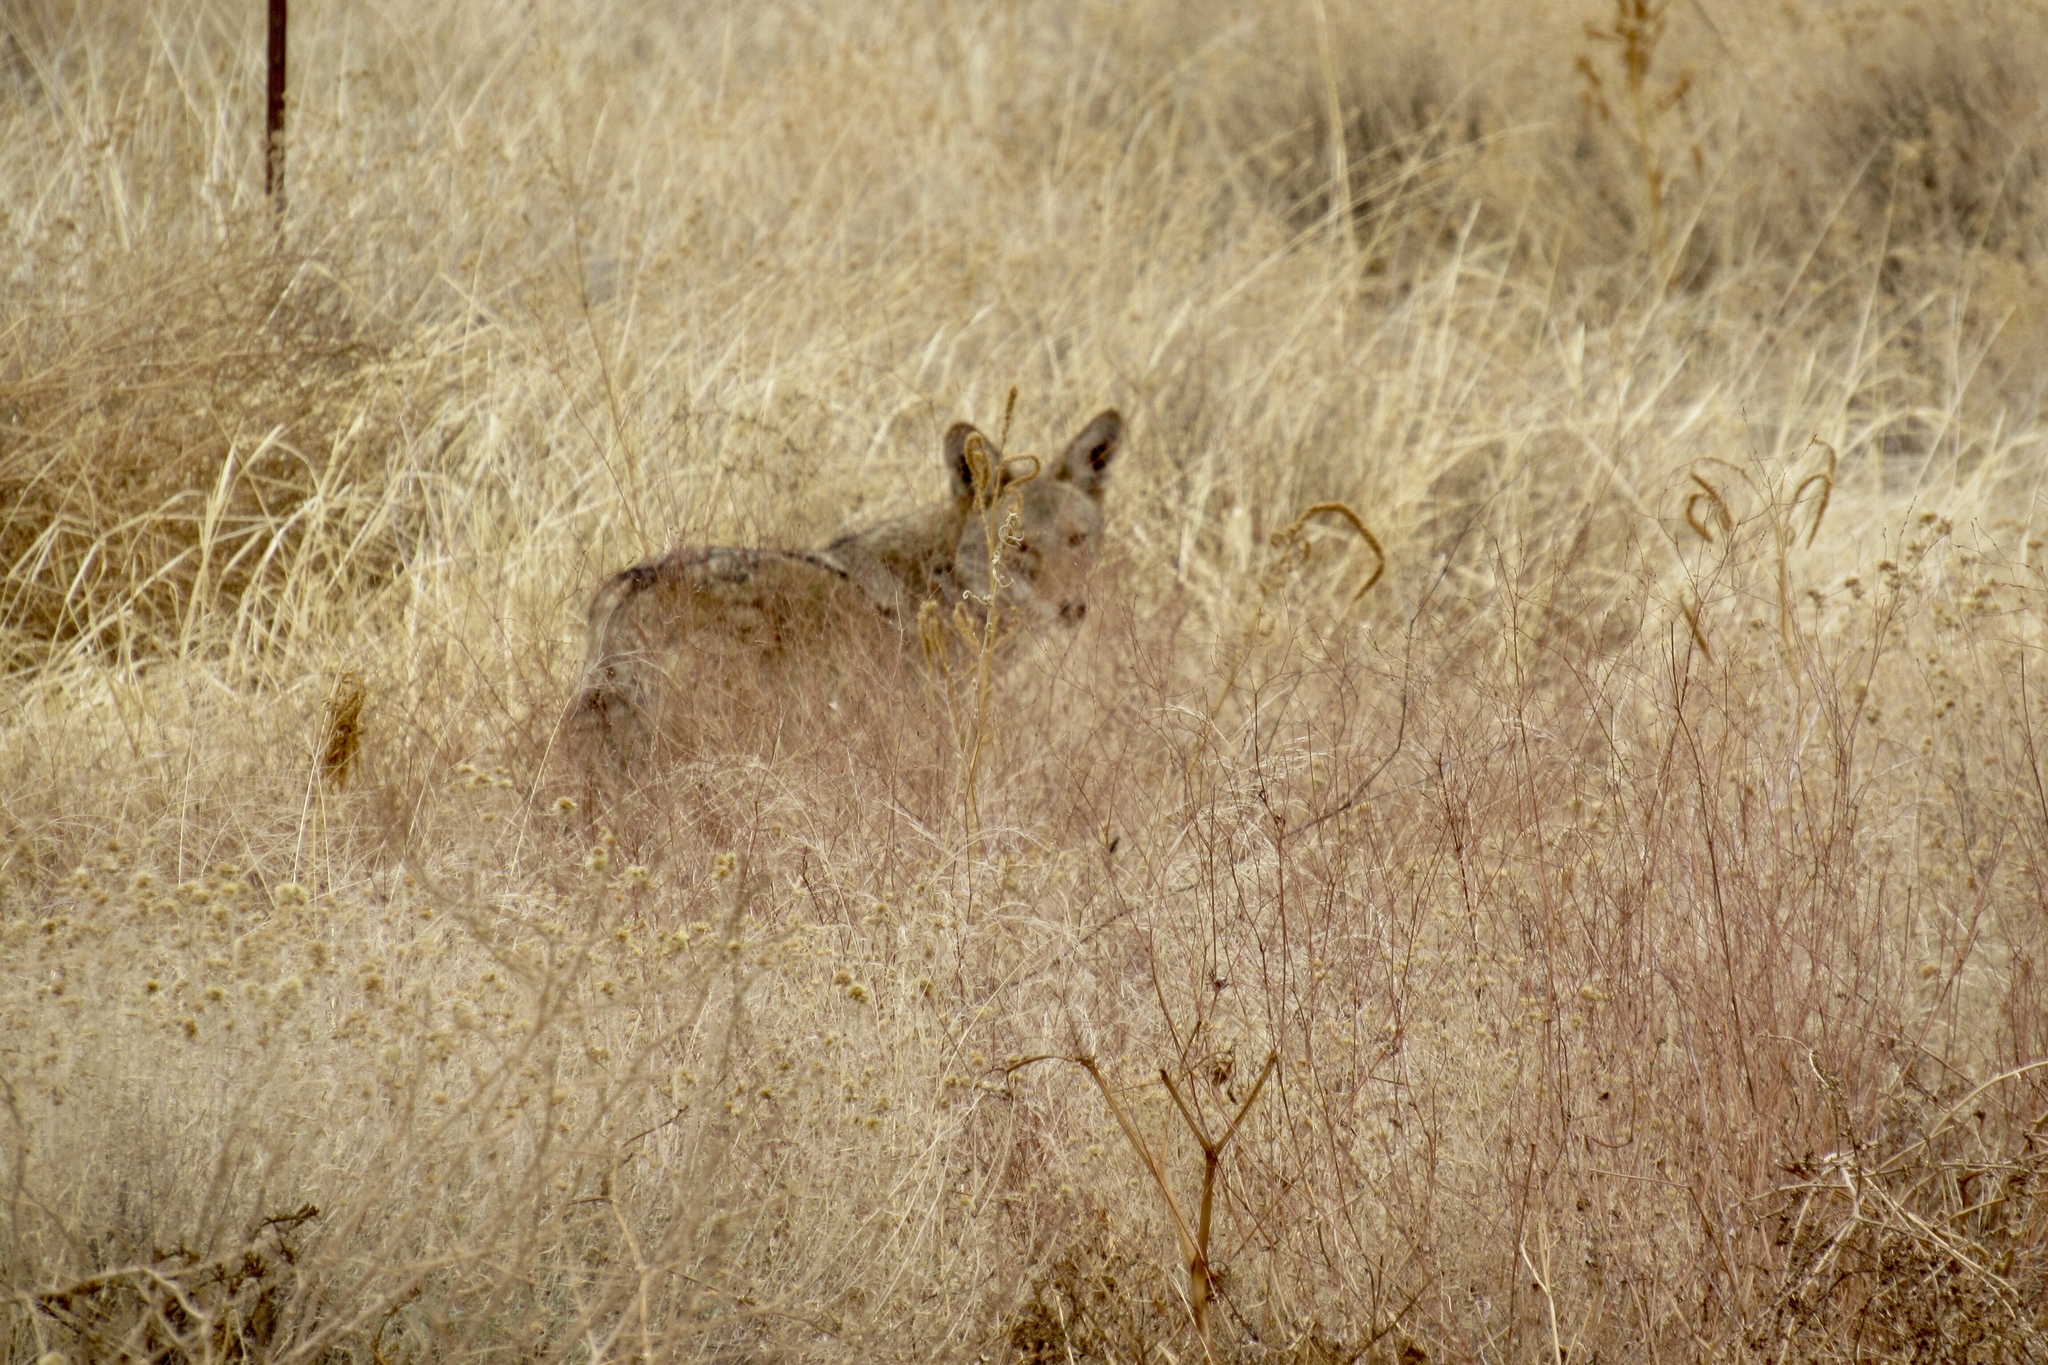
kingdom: Animalia
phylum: Chordata
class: Mammalia
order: Carnivora
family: Canidae
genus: Canis
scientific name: Canis latrans
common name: Coyote
